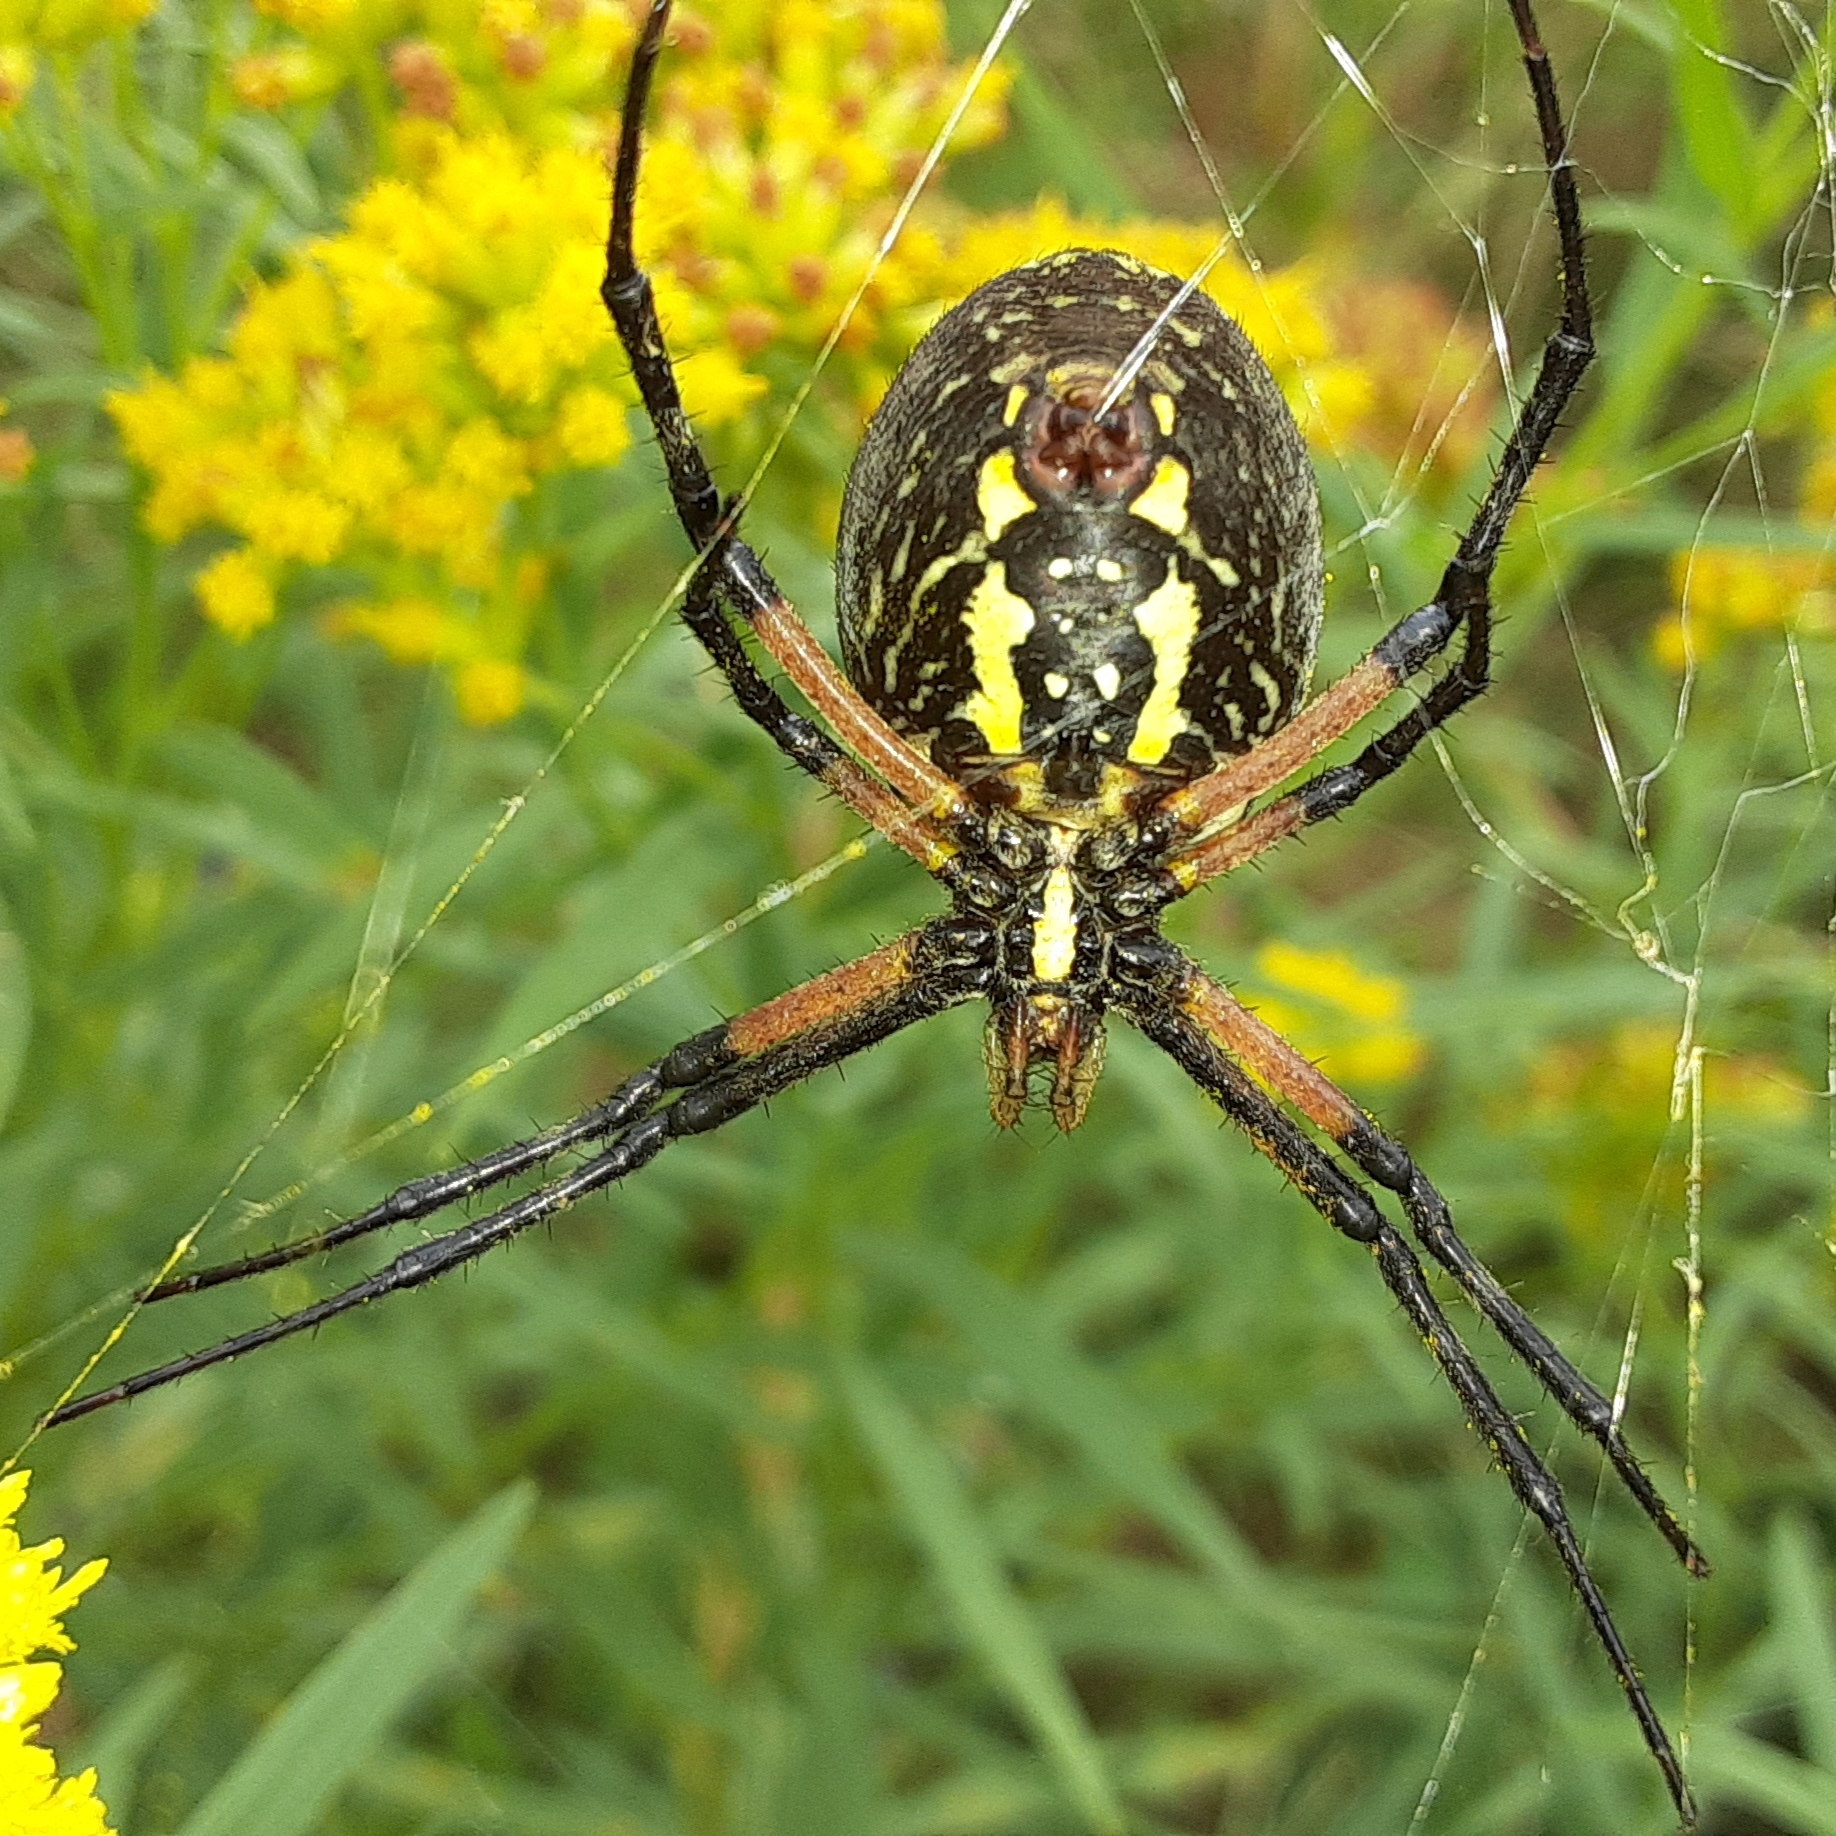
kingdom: Animalia
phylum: Arthropoda
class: Arachnida
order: Araneae
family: Araneidae
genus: Argiope
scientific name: Argiope aurantia
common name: Orb weavers
